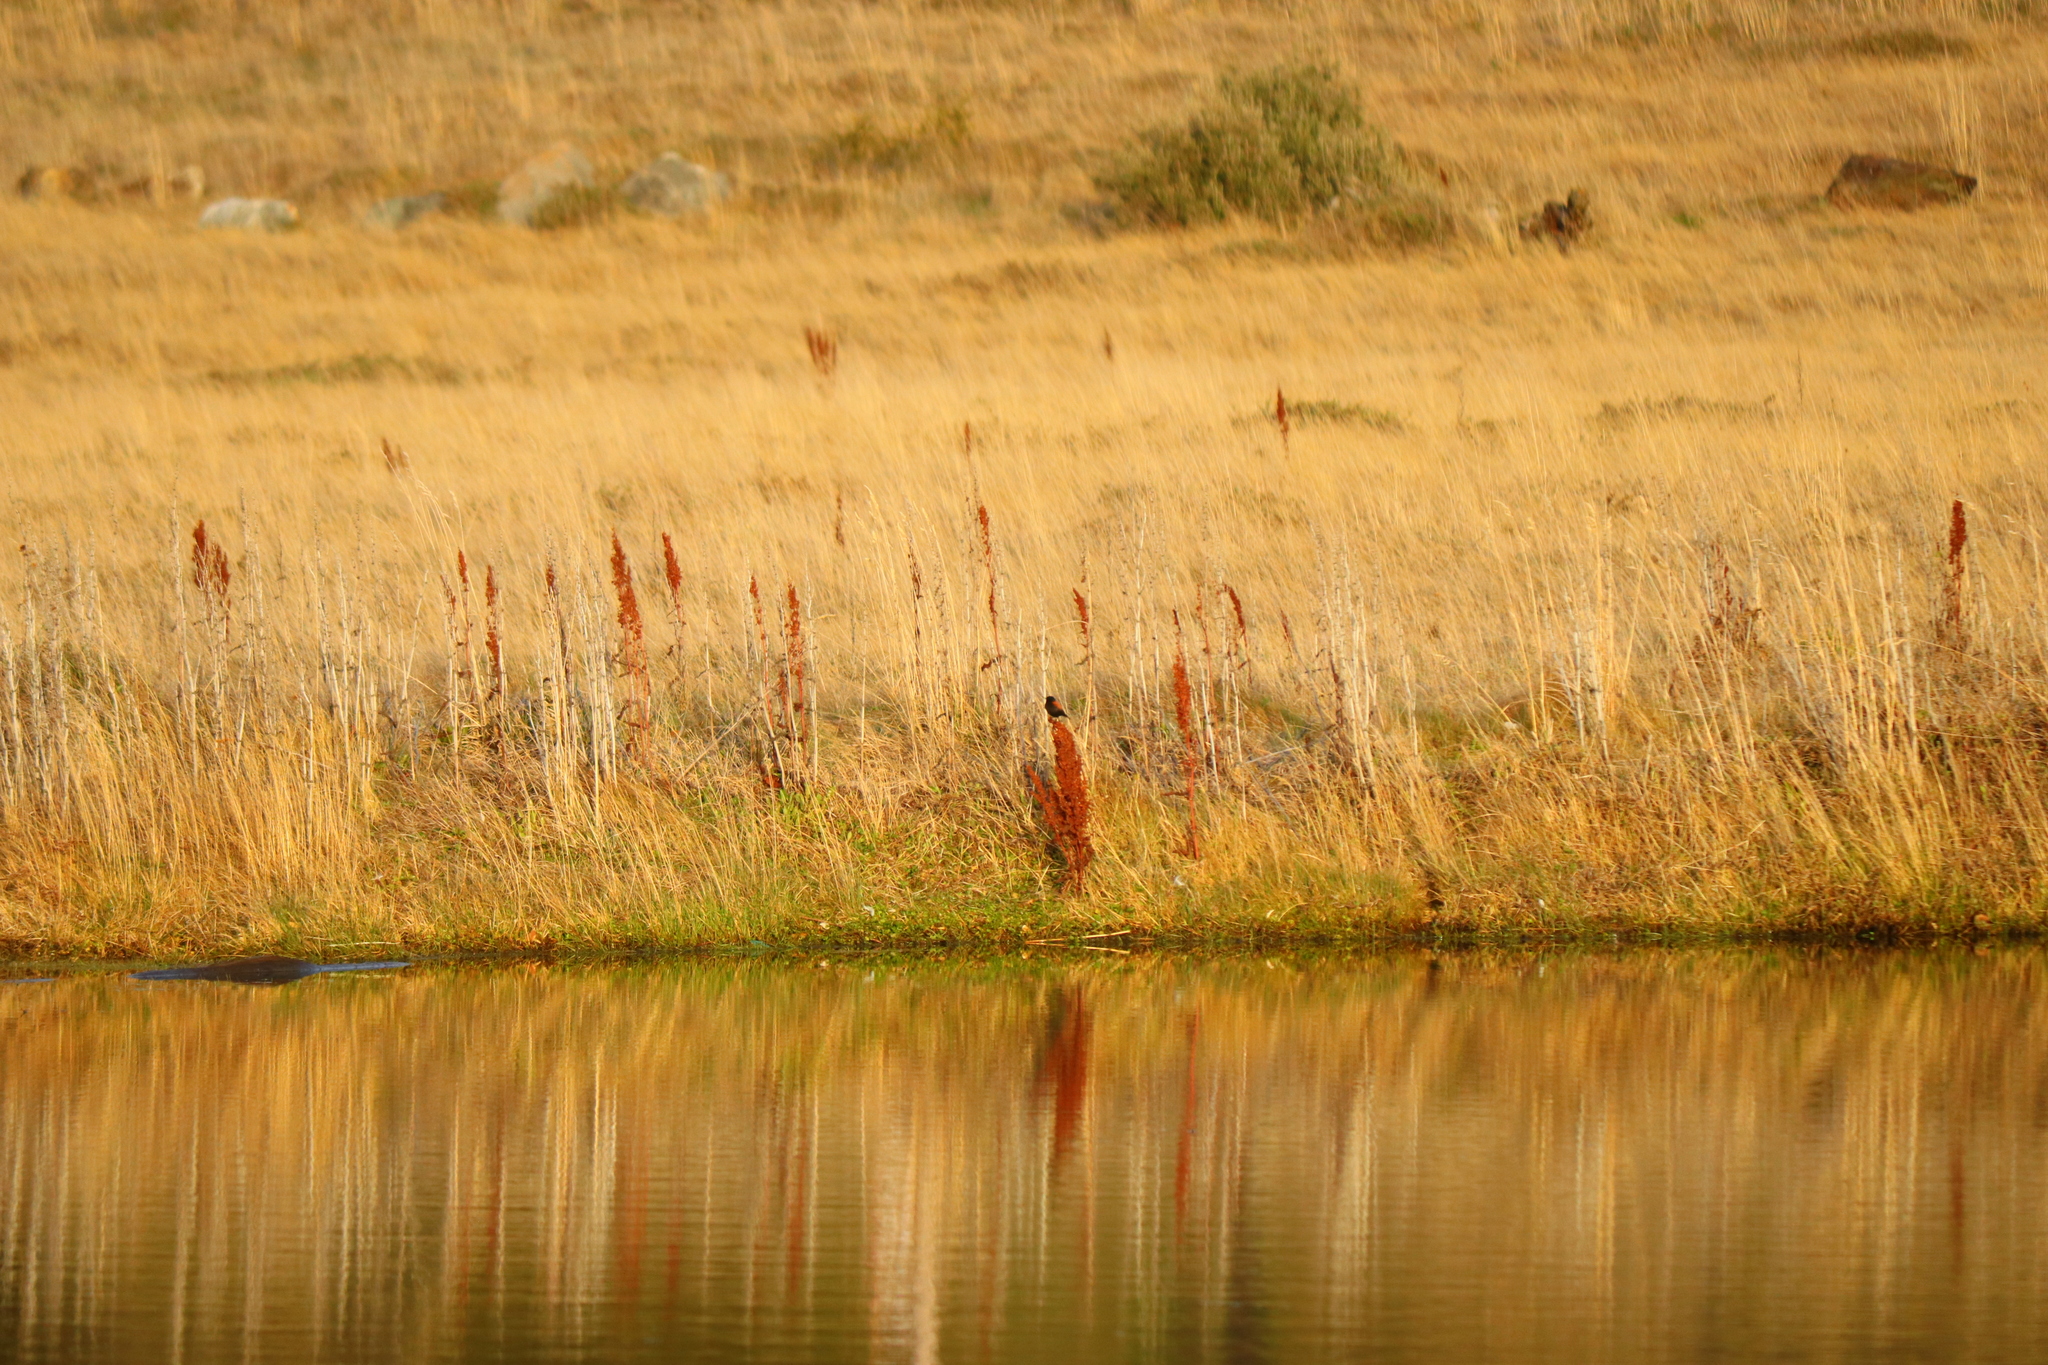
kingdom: Animalia
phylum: Chordata
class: Aves
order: Passeriformes
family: Tyrannidae
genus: Lessonia
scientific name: Lessonia rufa
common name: Austral negrito
